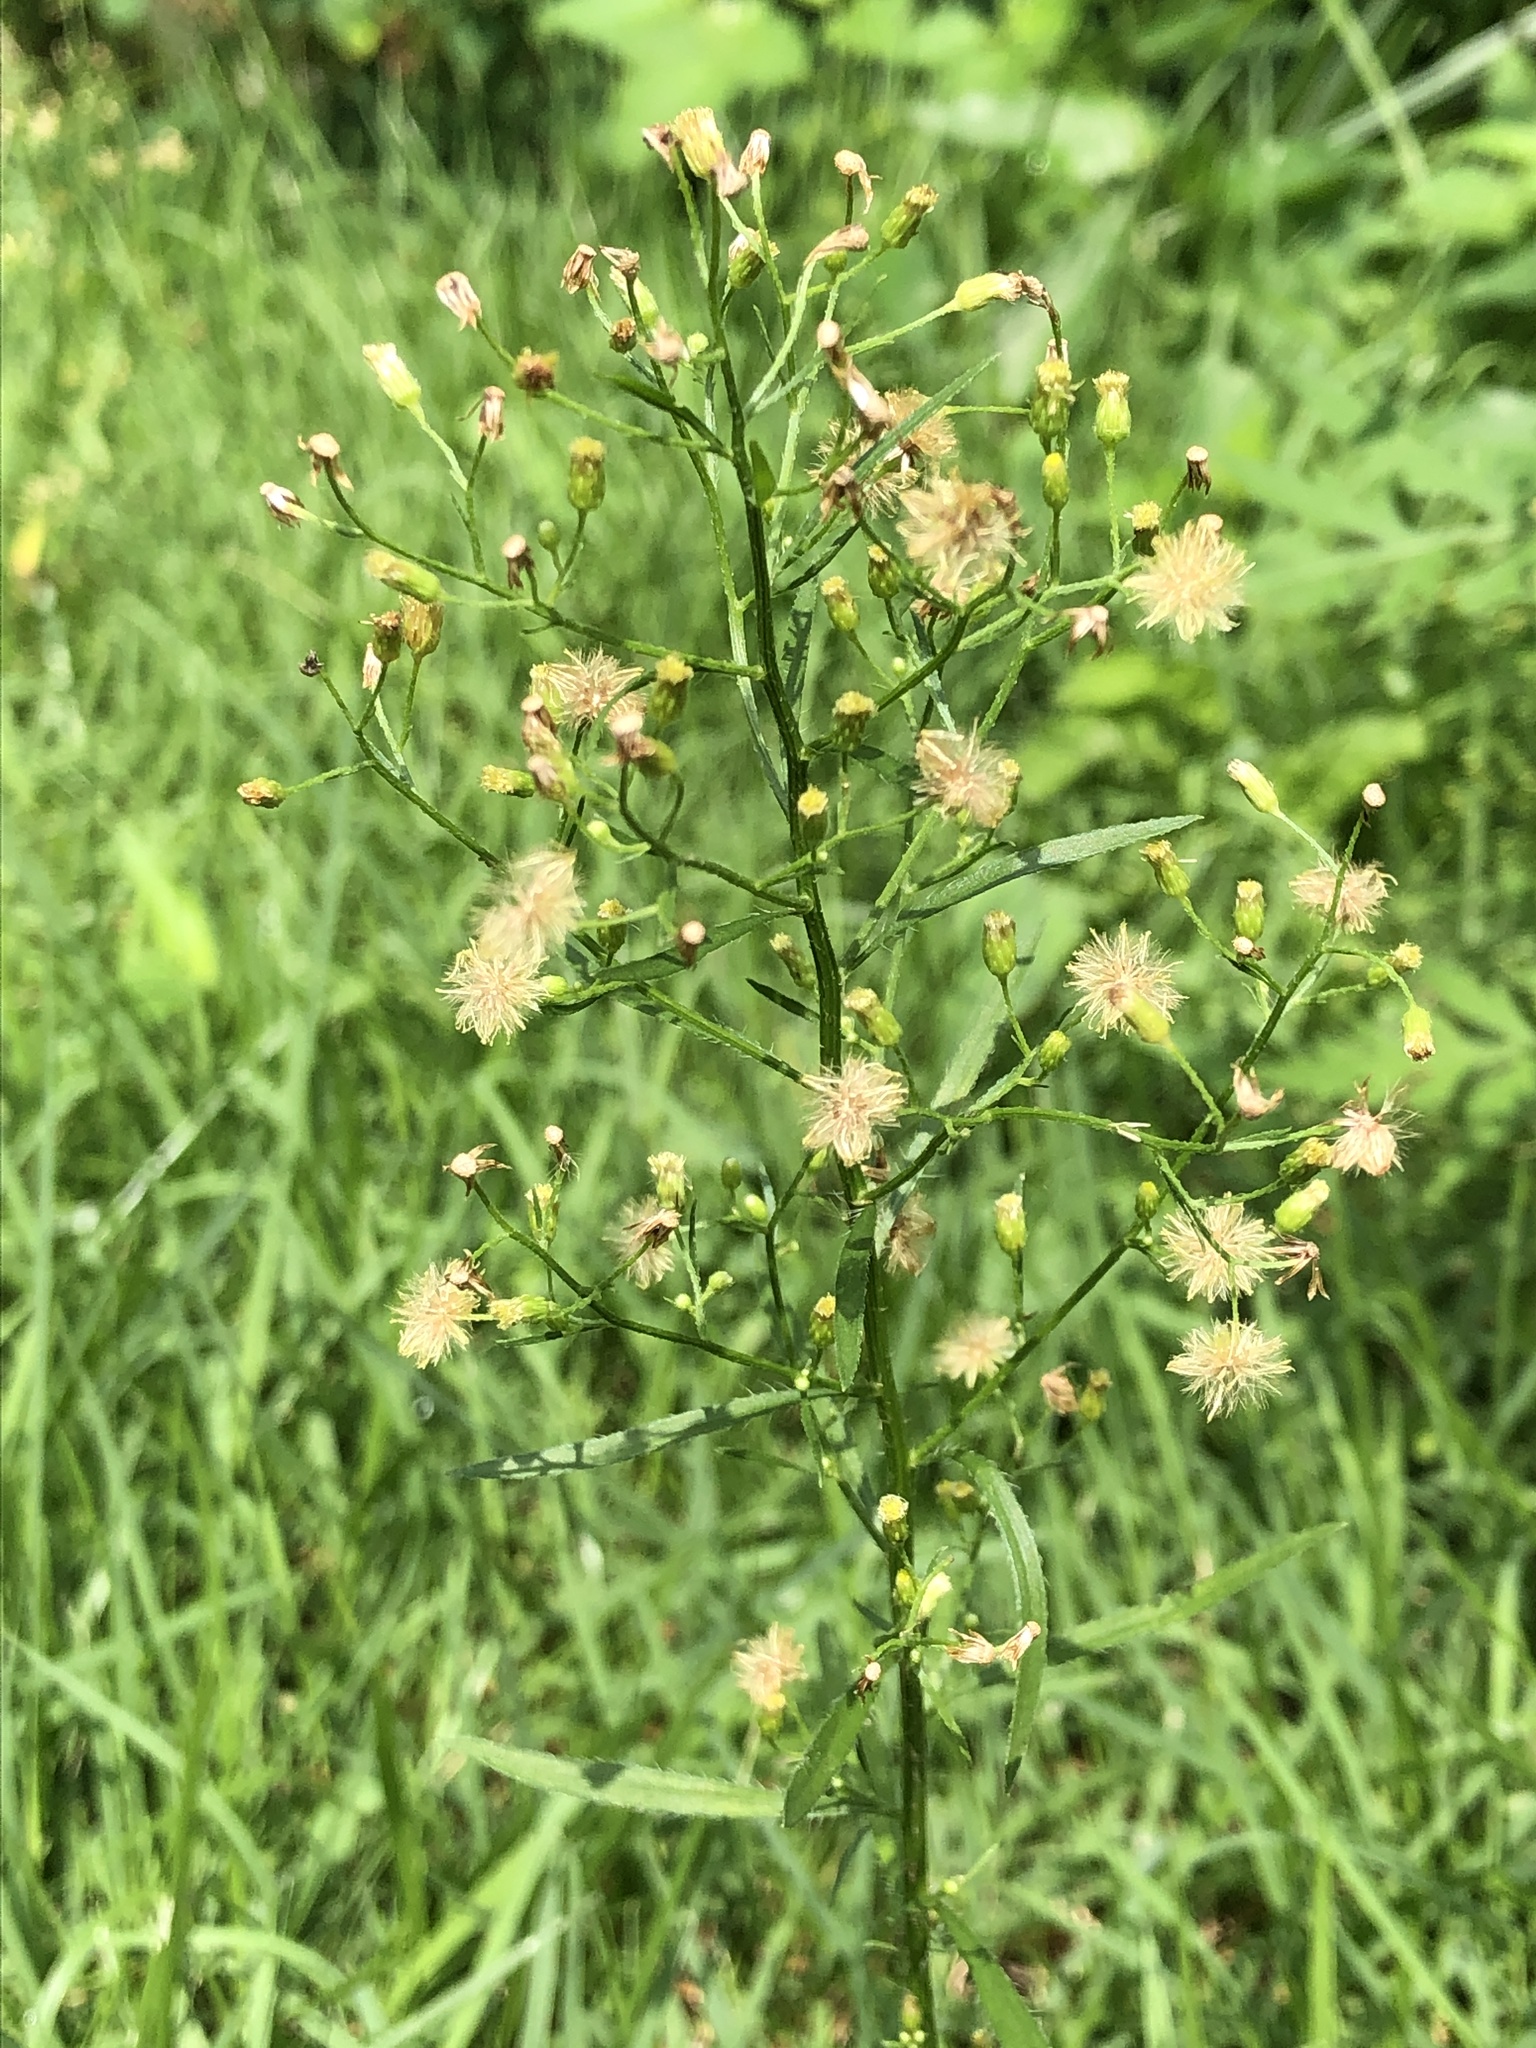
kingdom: Plantae
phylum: Tracheophyta
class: Magnoliopsida
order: Asterales
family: Asteraceae
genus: Erigeron
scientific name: Erigeron canadensis
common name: Canadian fleabane
